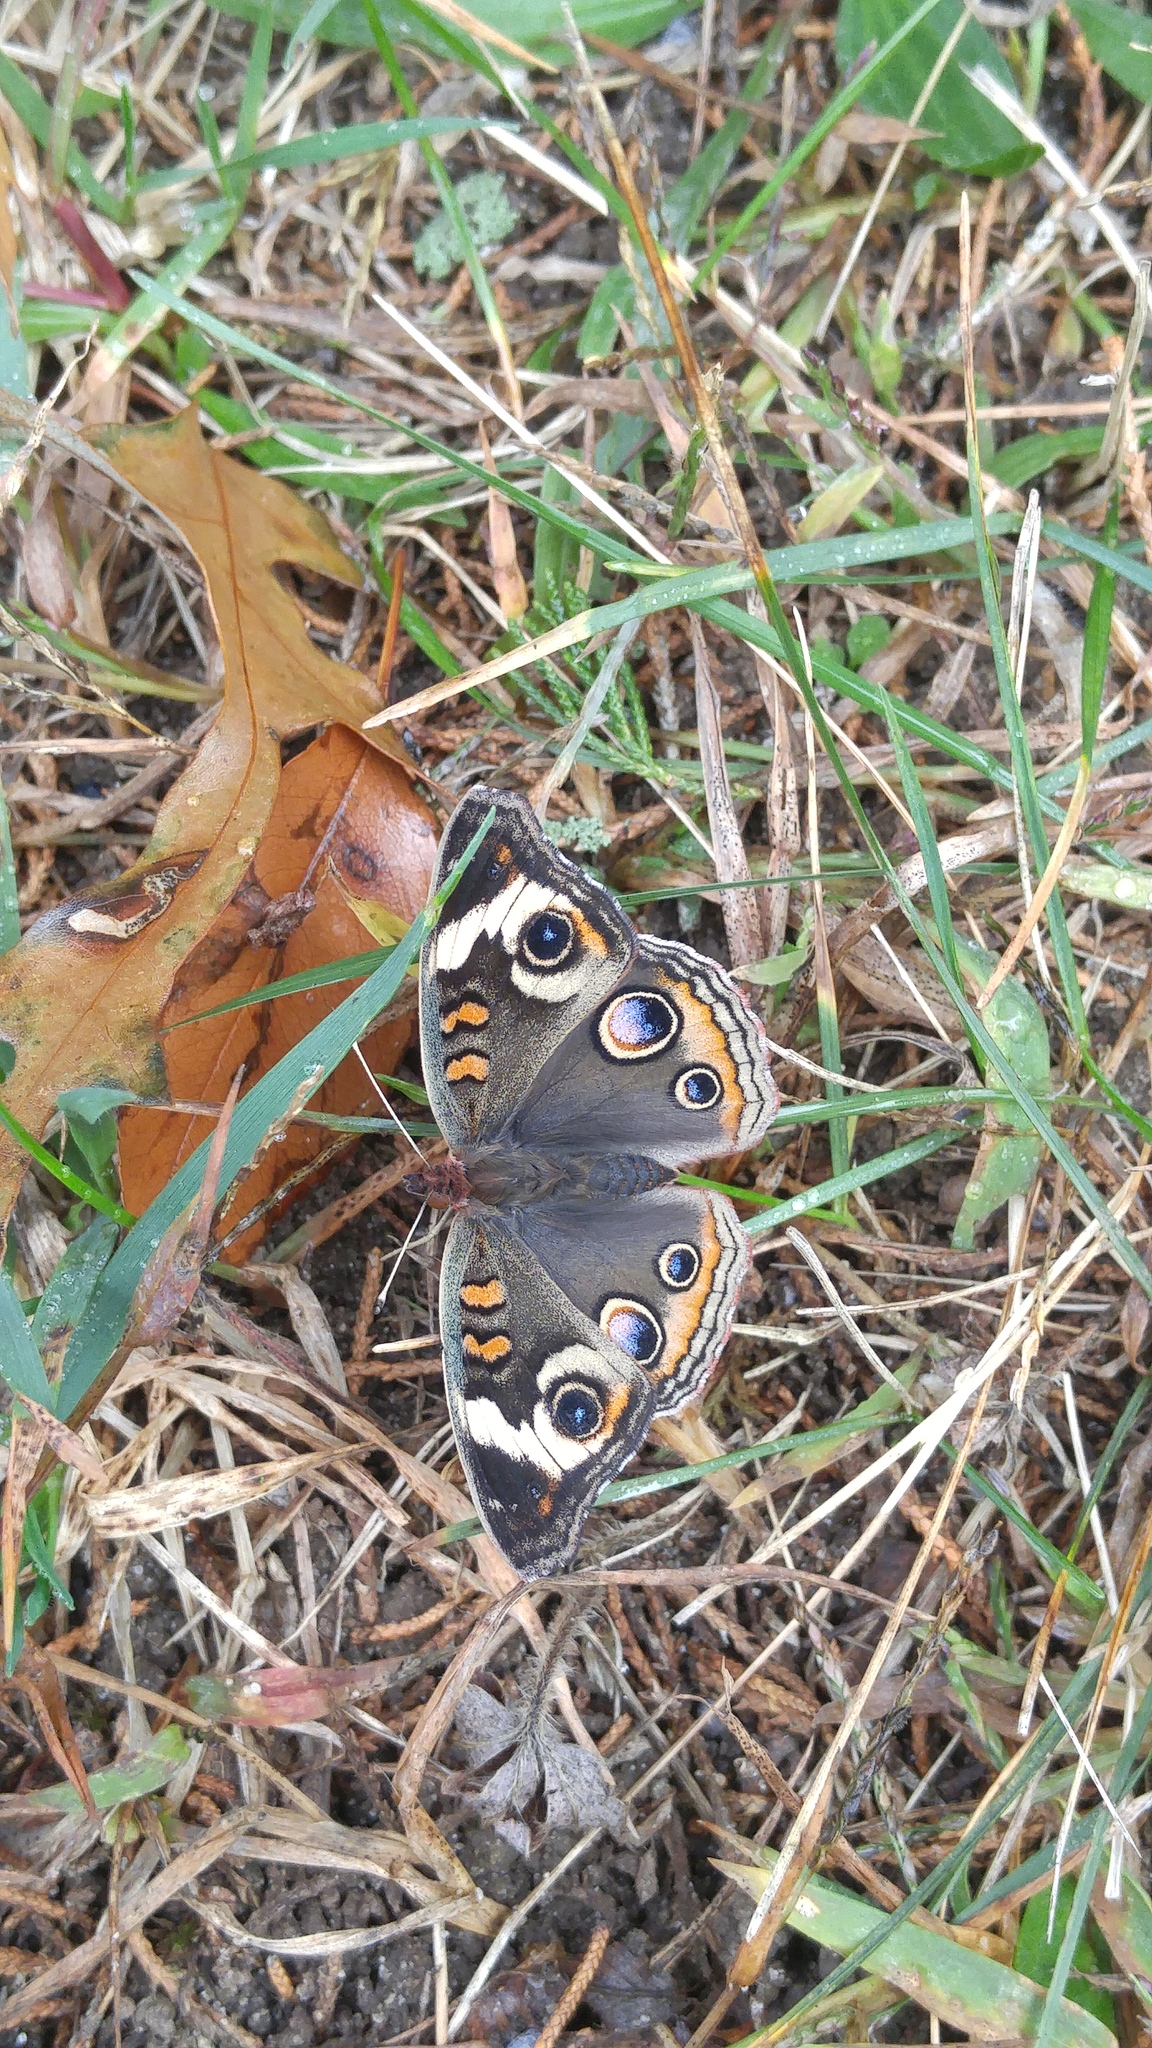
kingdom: Animalia
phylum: Arthropoda
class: Insecta
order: Lepidoptera
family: Nymphalidae
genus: Junonia
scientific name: Junonia coenia
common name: Common buckeye
